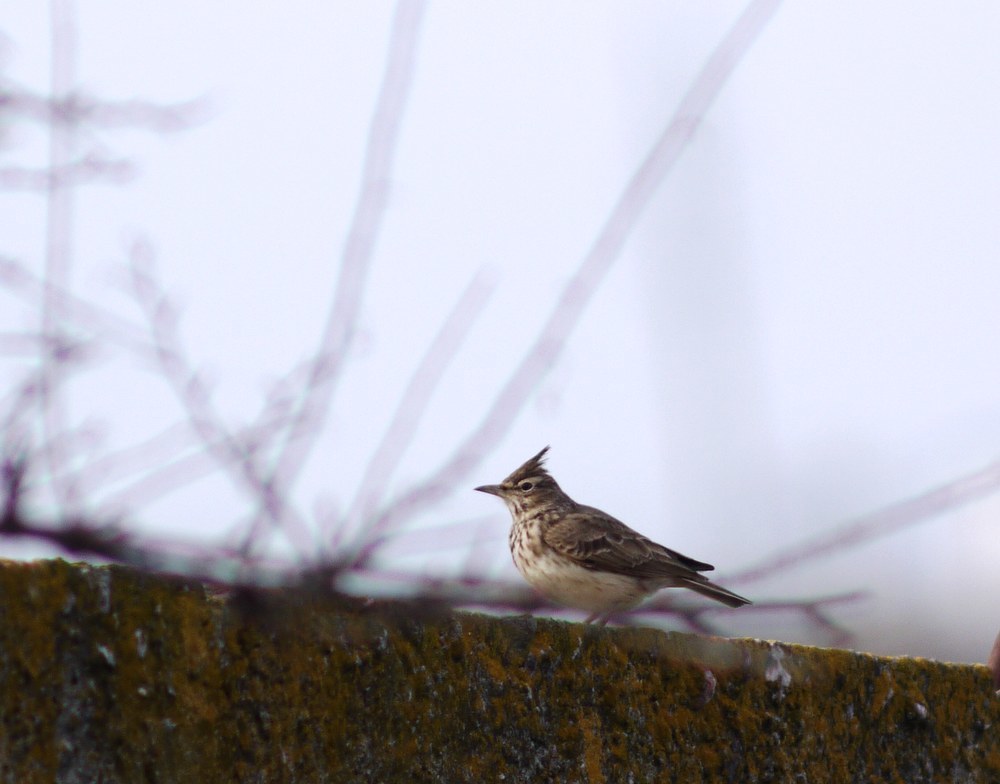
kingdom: Animalia
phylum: Chordata
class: Aves
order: Passeriformes
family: Alaudidae
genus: Galerida
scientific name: Galerida cristata
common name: Crested lark
